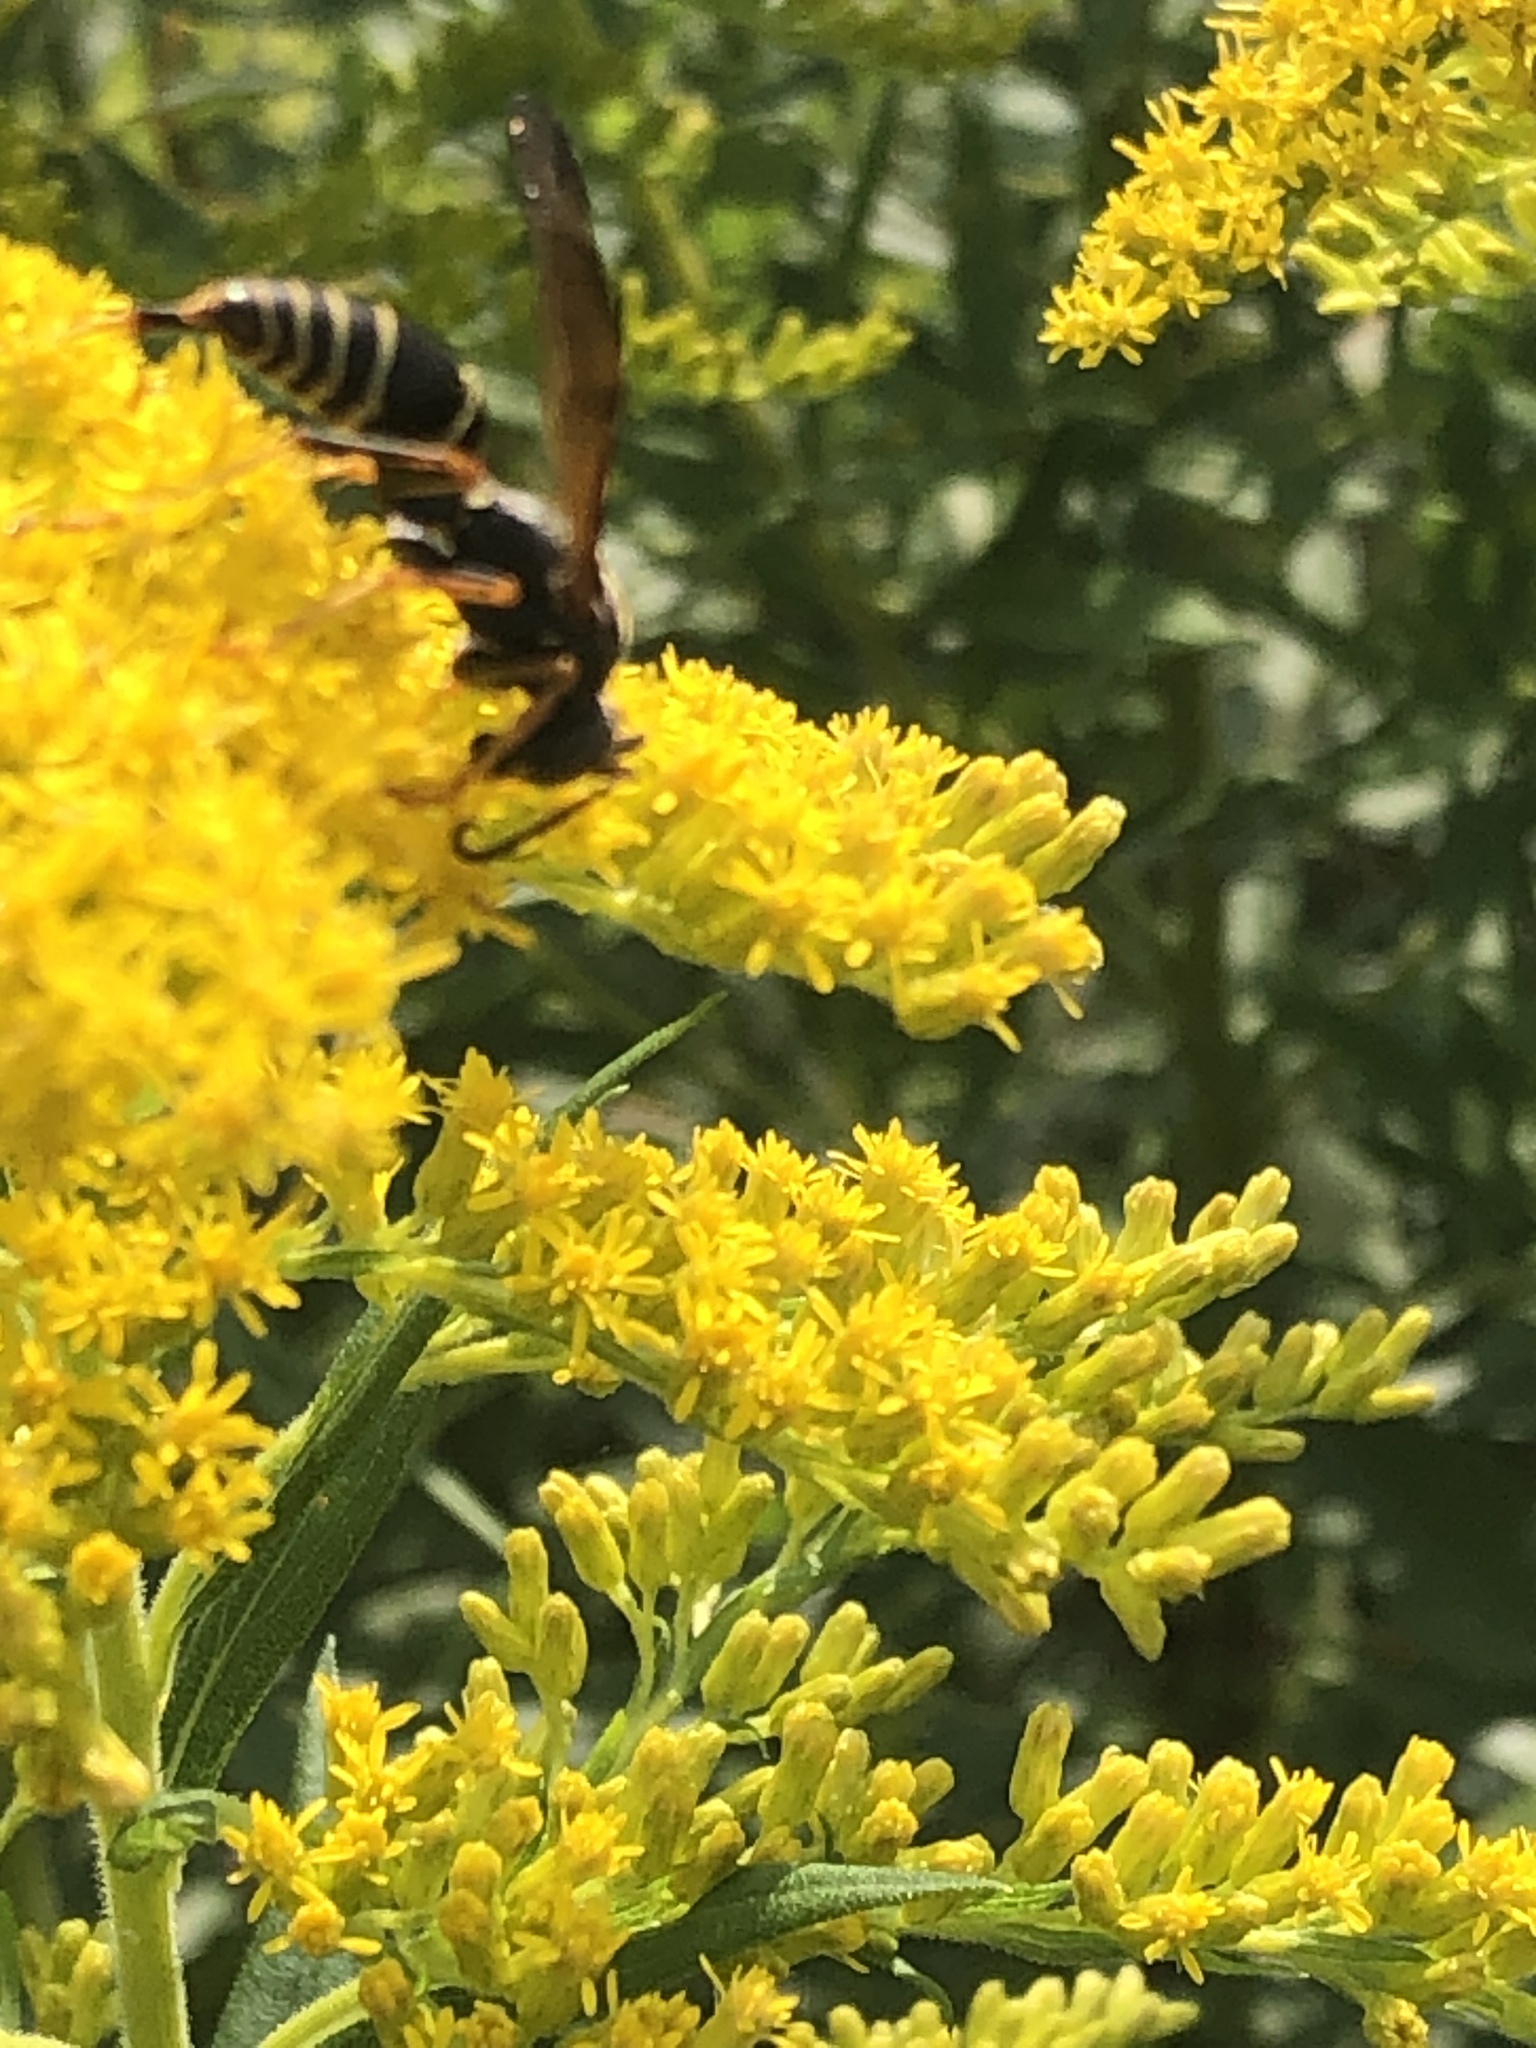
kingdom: Animalia
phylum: Arthropoda
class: Insecta
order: Hymenoptera
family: Eumenidae
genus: Polistes
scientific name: Polistes fuscatus
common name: Dark paper wasp
